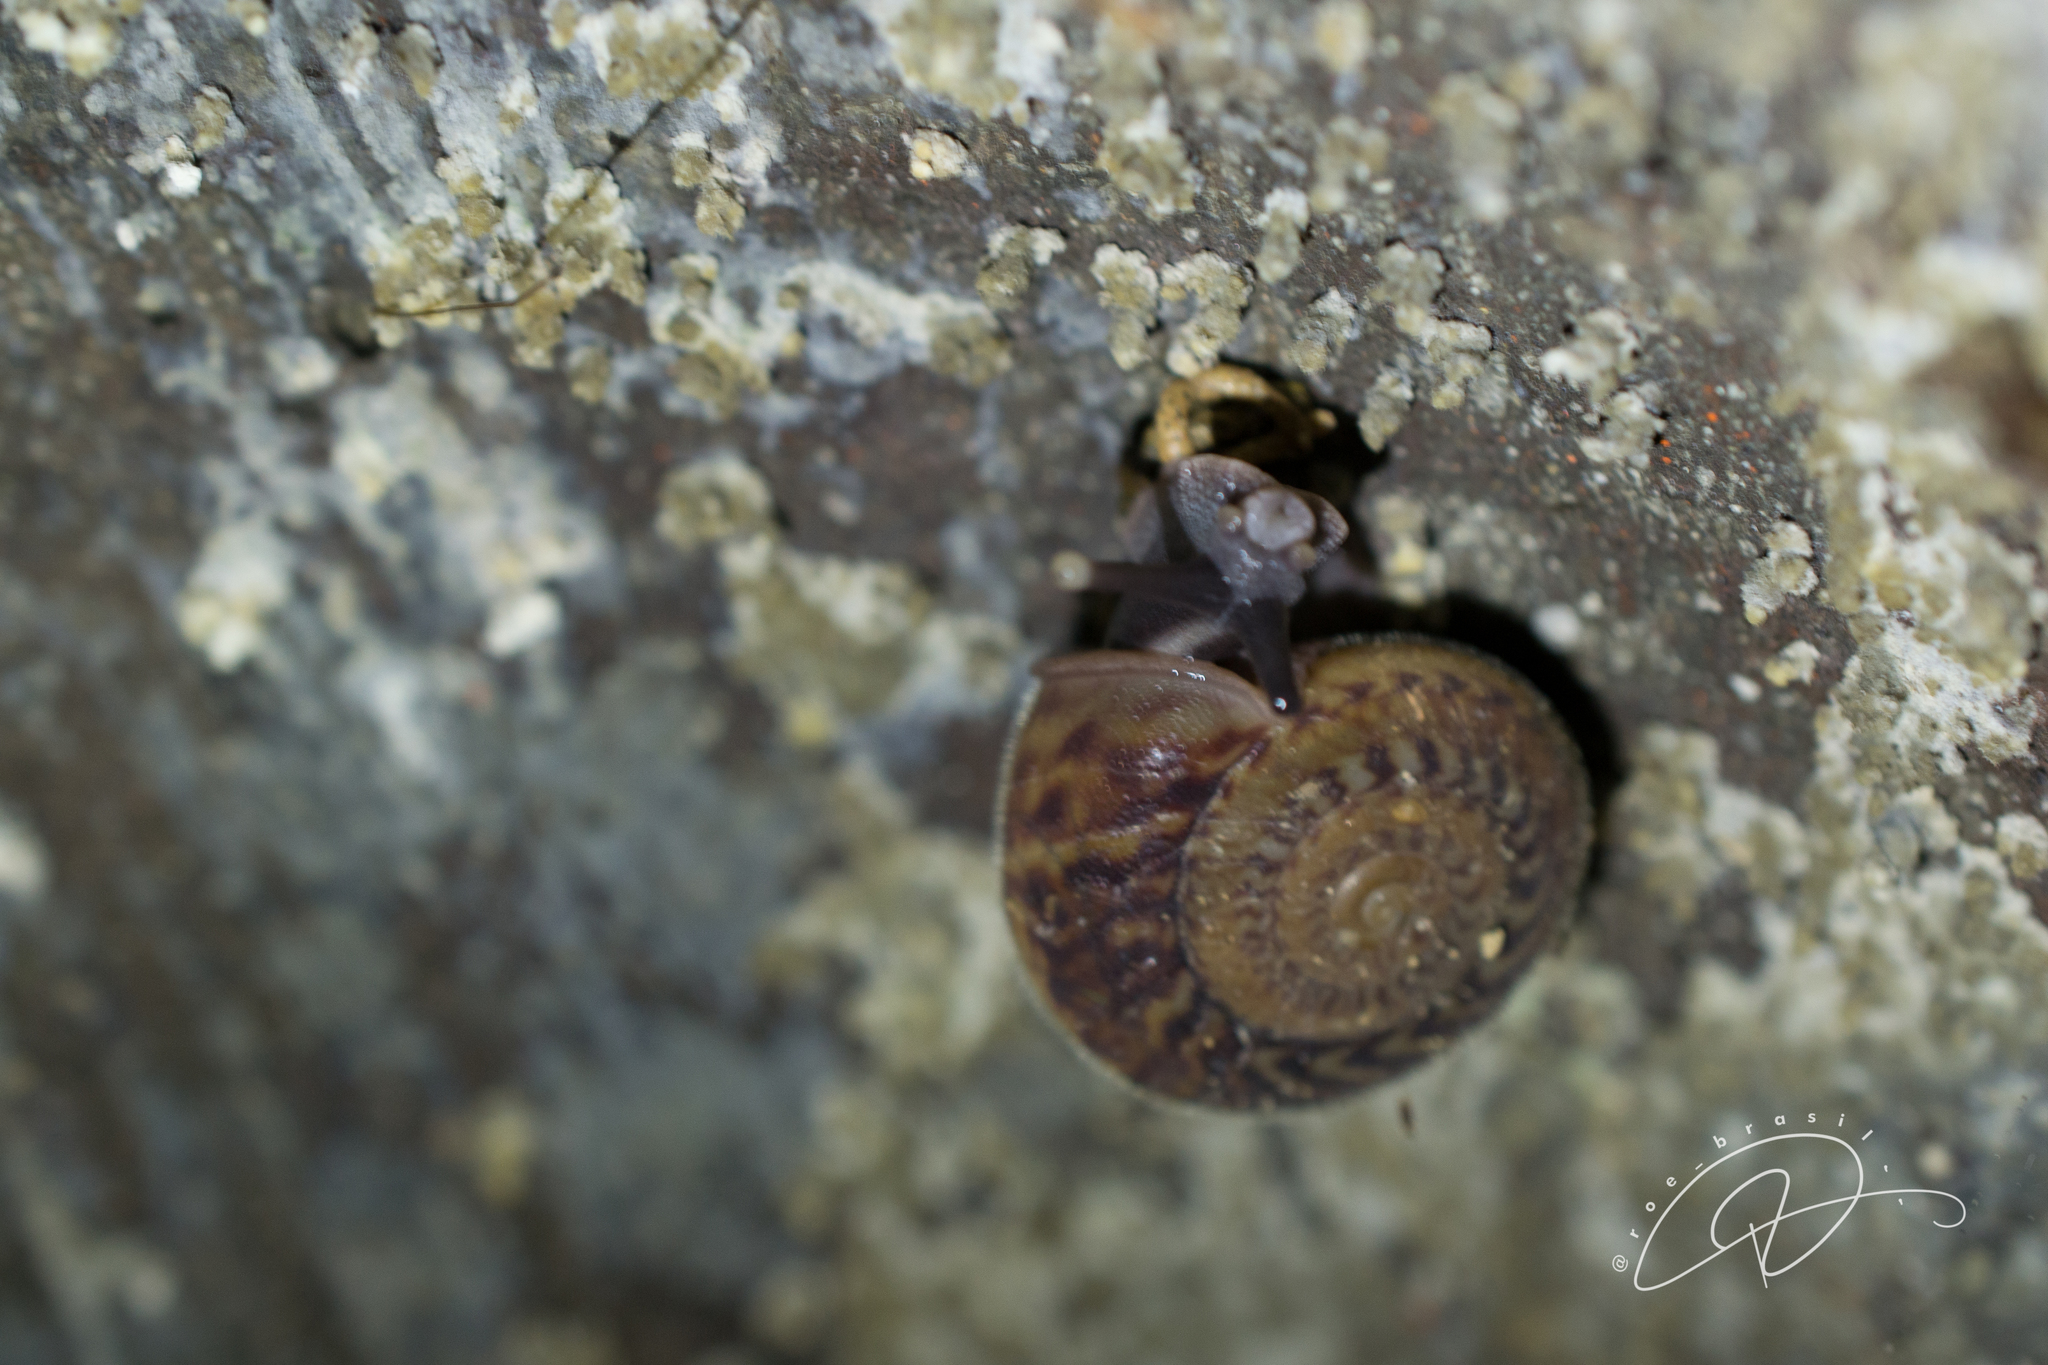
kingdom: Animalia
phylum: Mollusca
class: Gastropoda
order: Stylommatophora
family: Solaropsidae
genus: Solaropsis
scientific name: Solaropsis brasiliana
